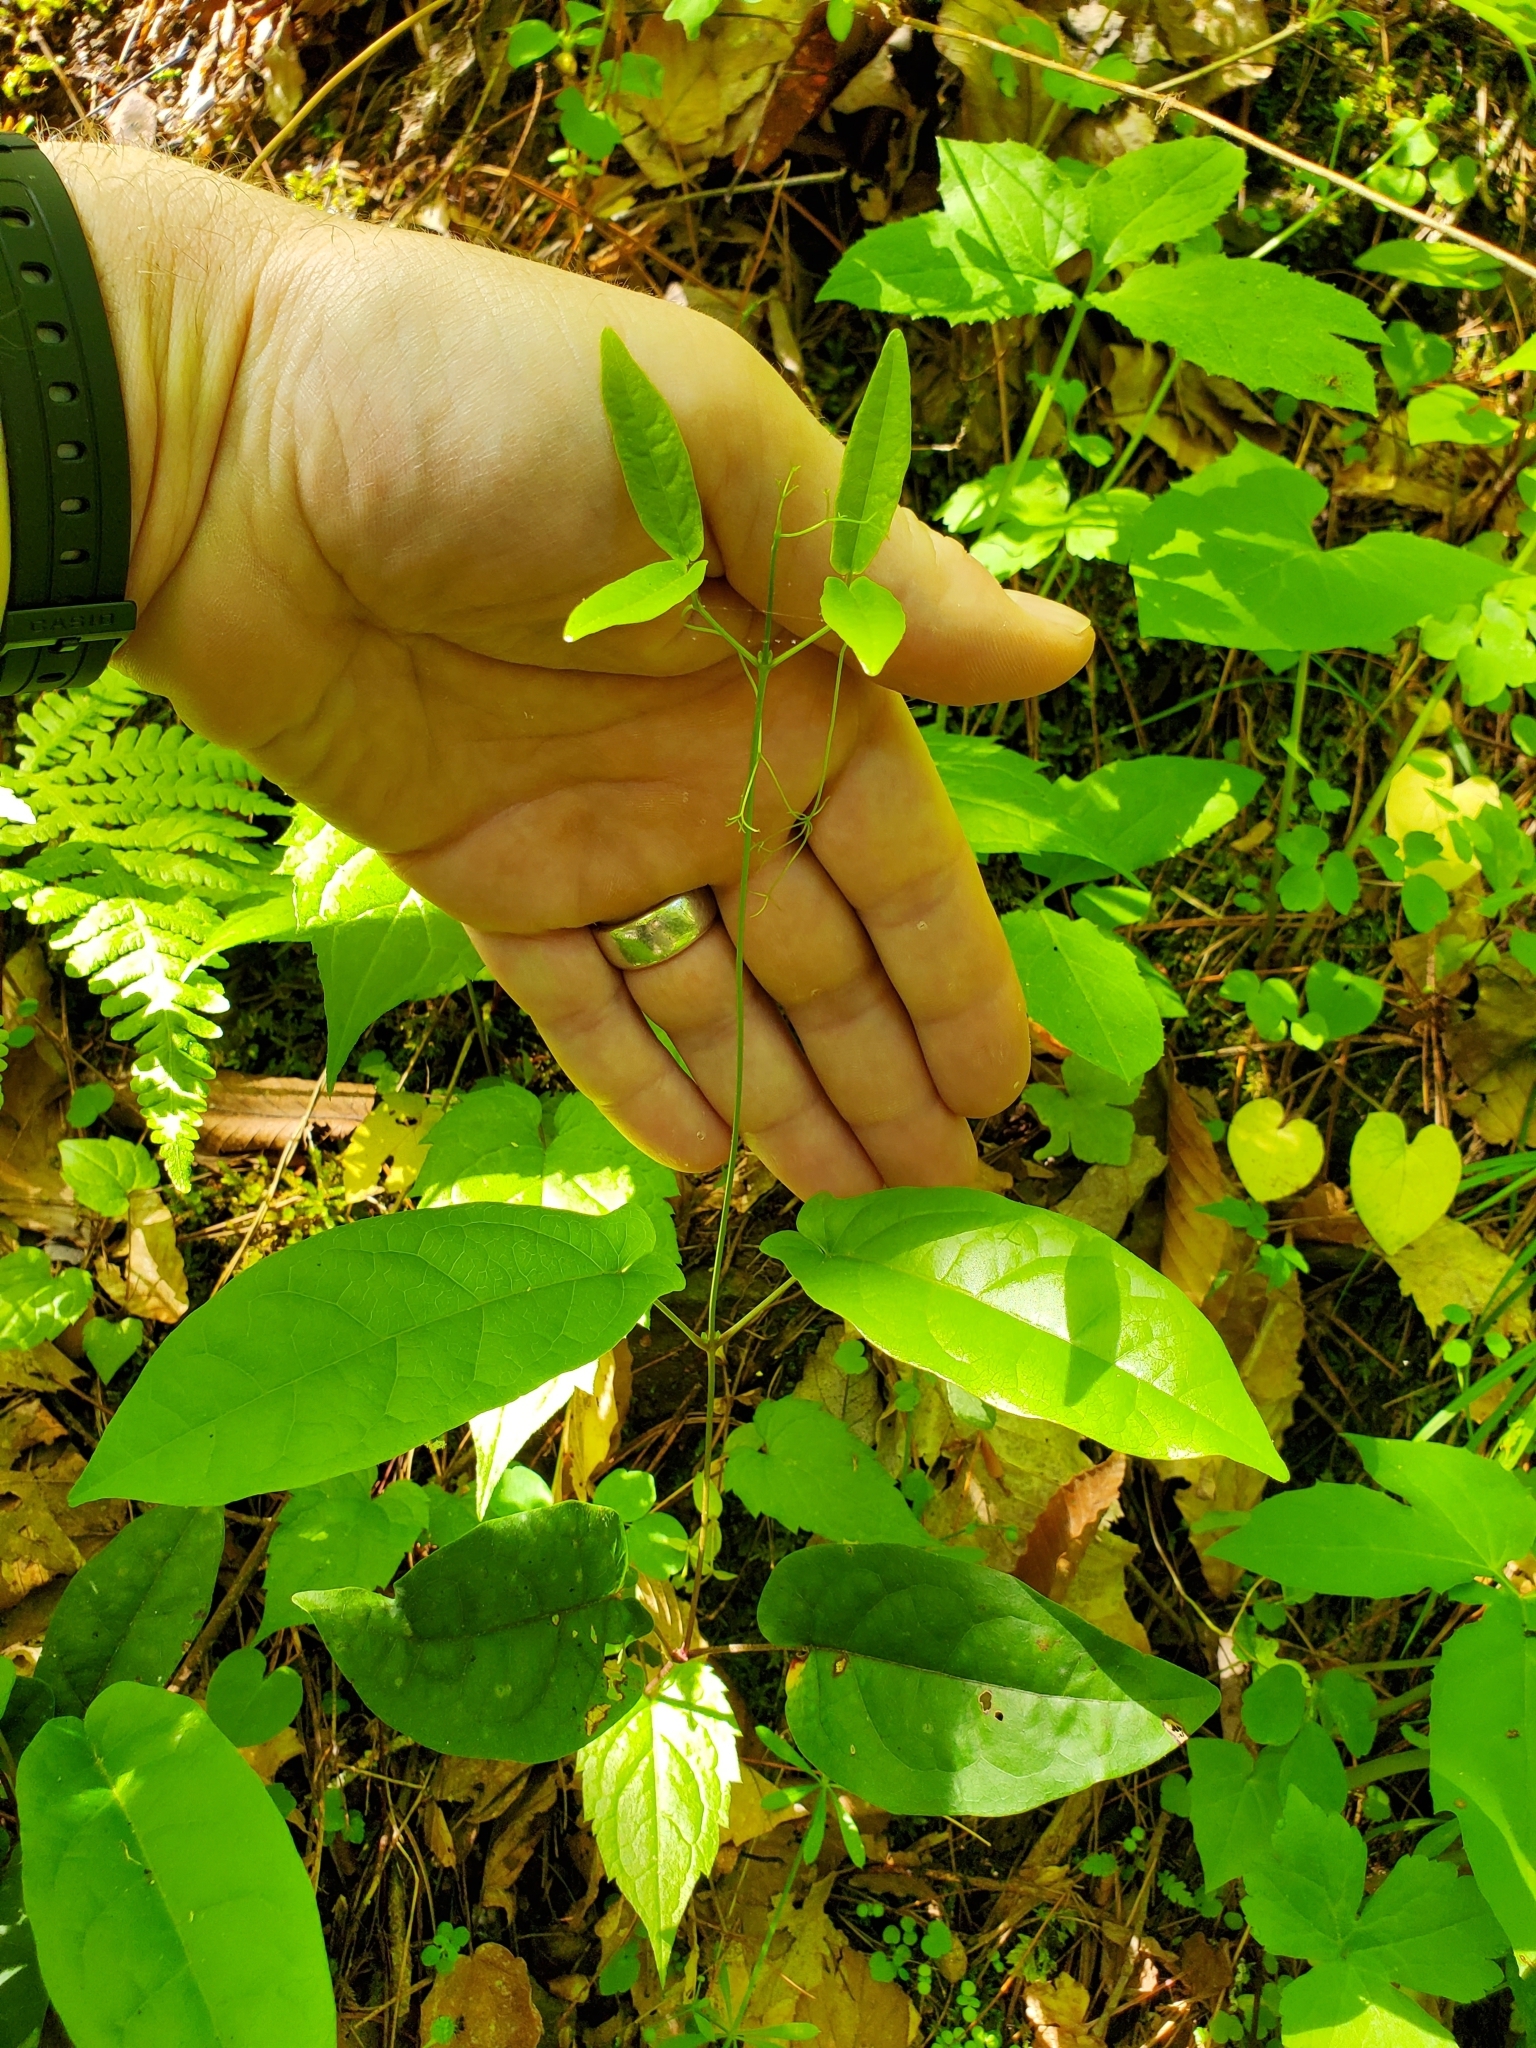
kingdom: Plantae
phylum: Tracheophyta
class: Magnoliopsida
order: Lamiales
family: Bignoniaceae
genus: Bignonia
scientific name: Bignonia capreolata
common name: Crossvine
